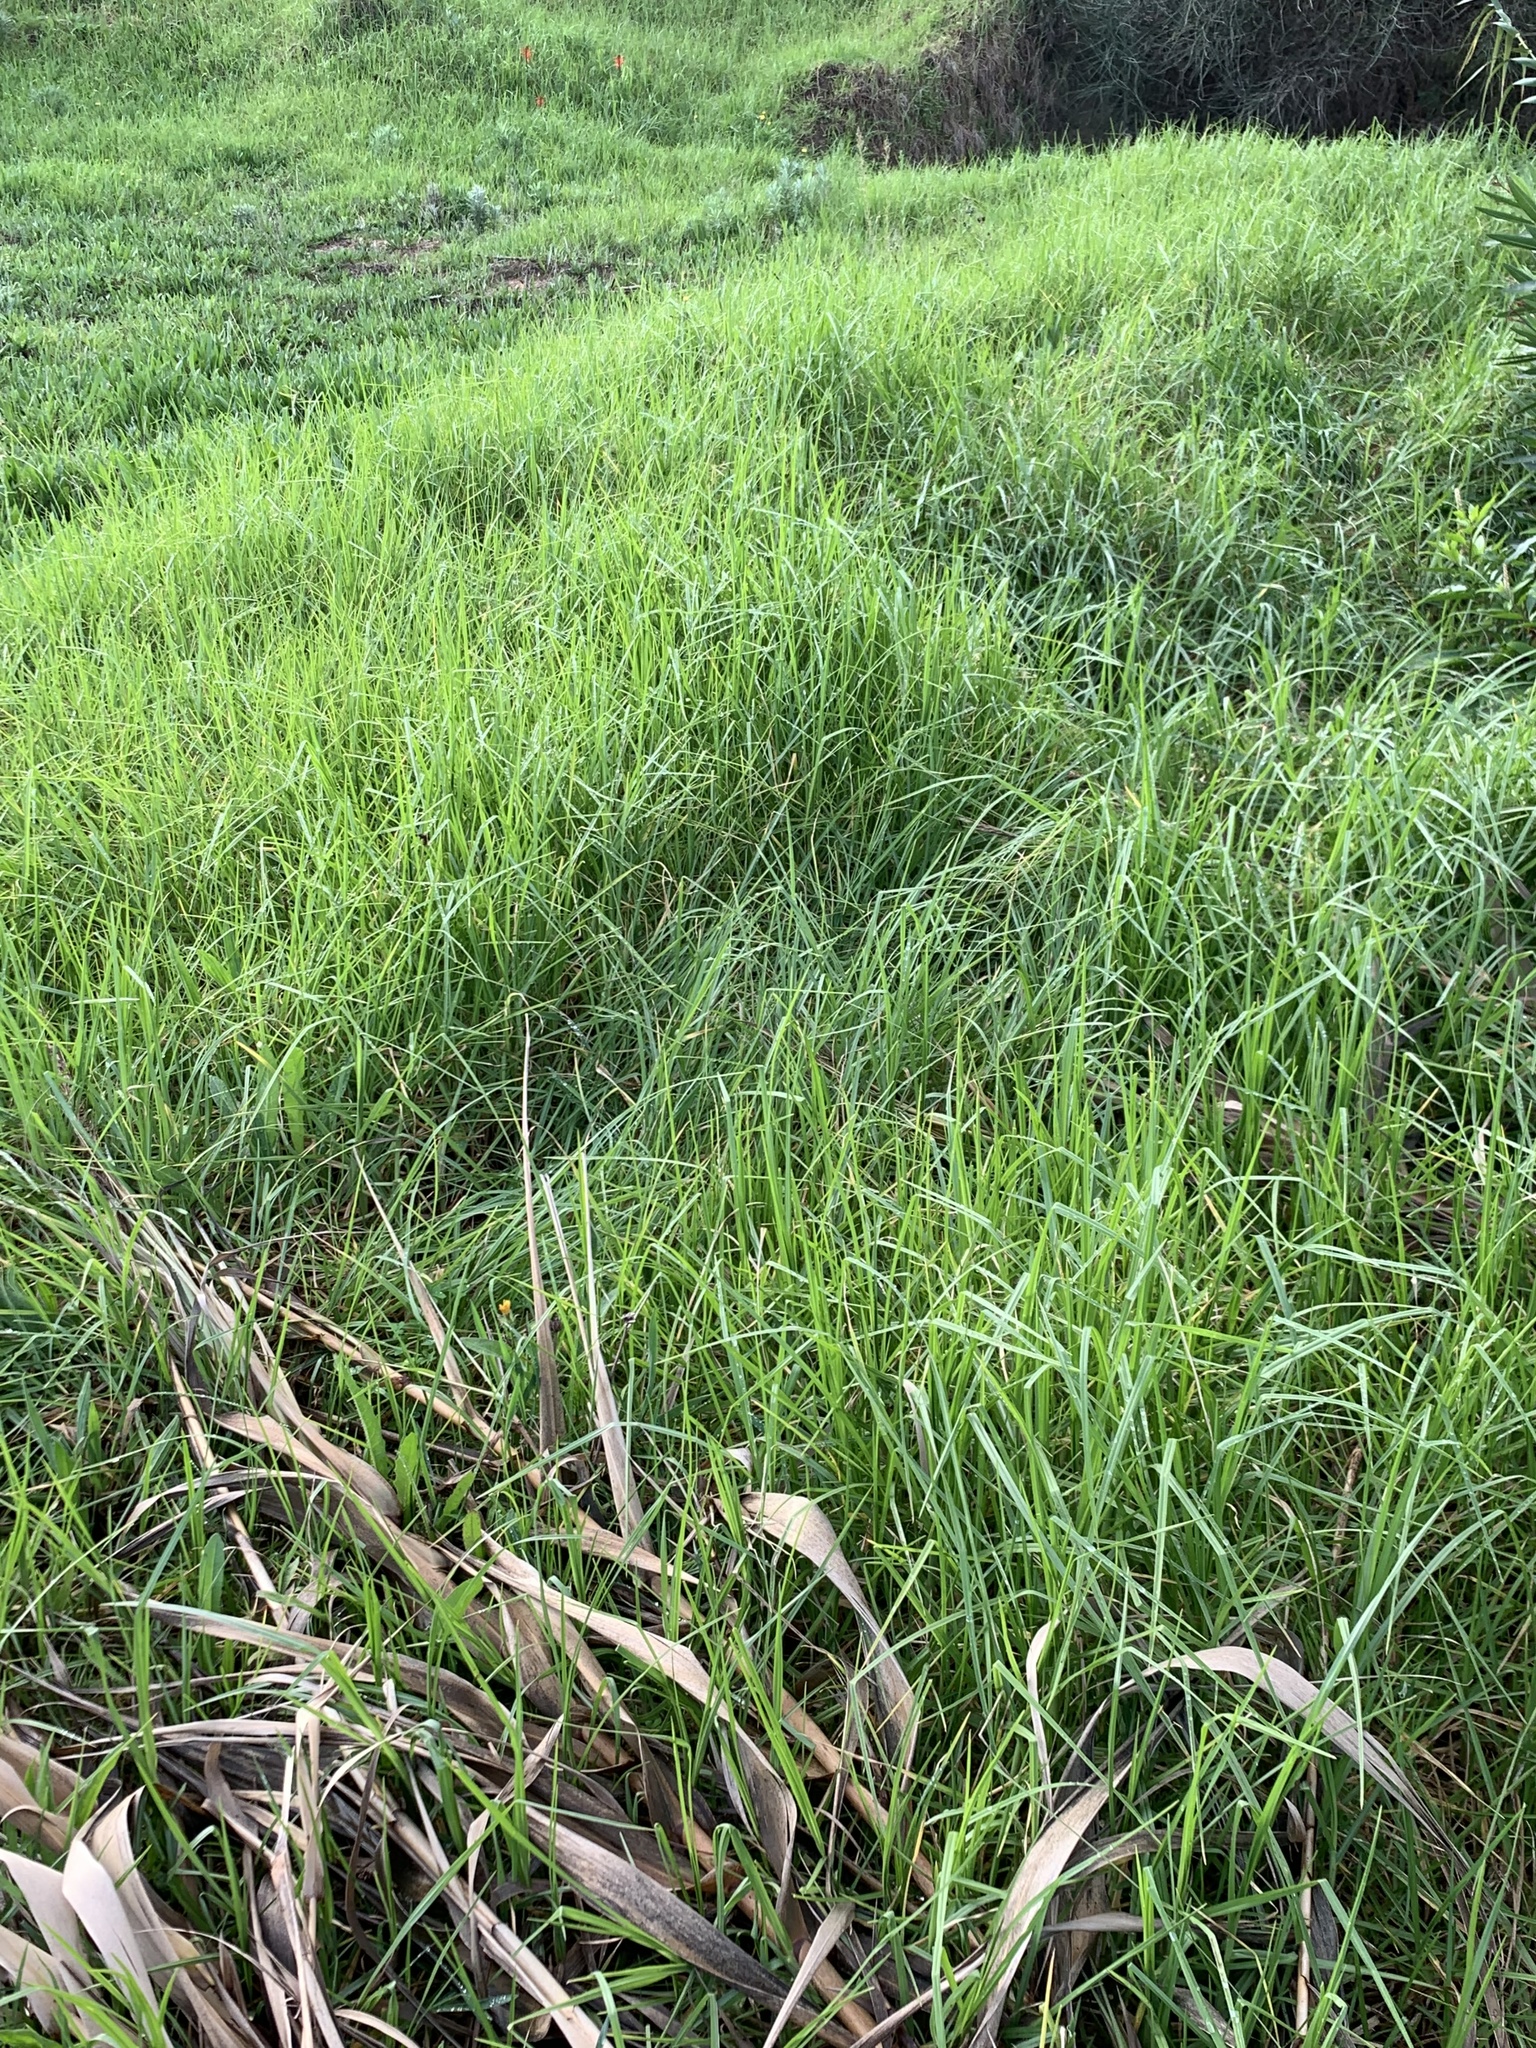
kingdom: Plantae
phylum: Tracheophyta
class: Liliopsida
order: Poales
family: Poaceae
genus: Cenchrus
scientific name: Cenchrus clandestinus
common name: Kikuyugrass
